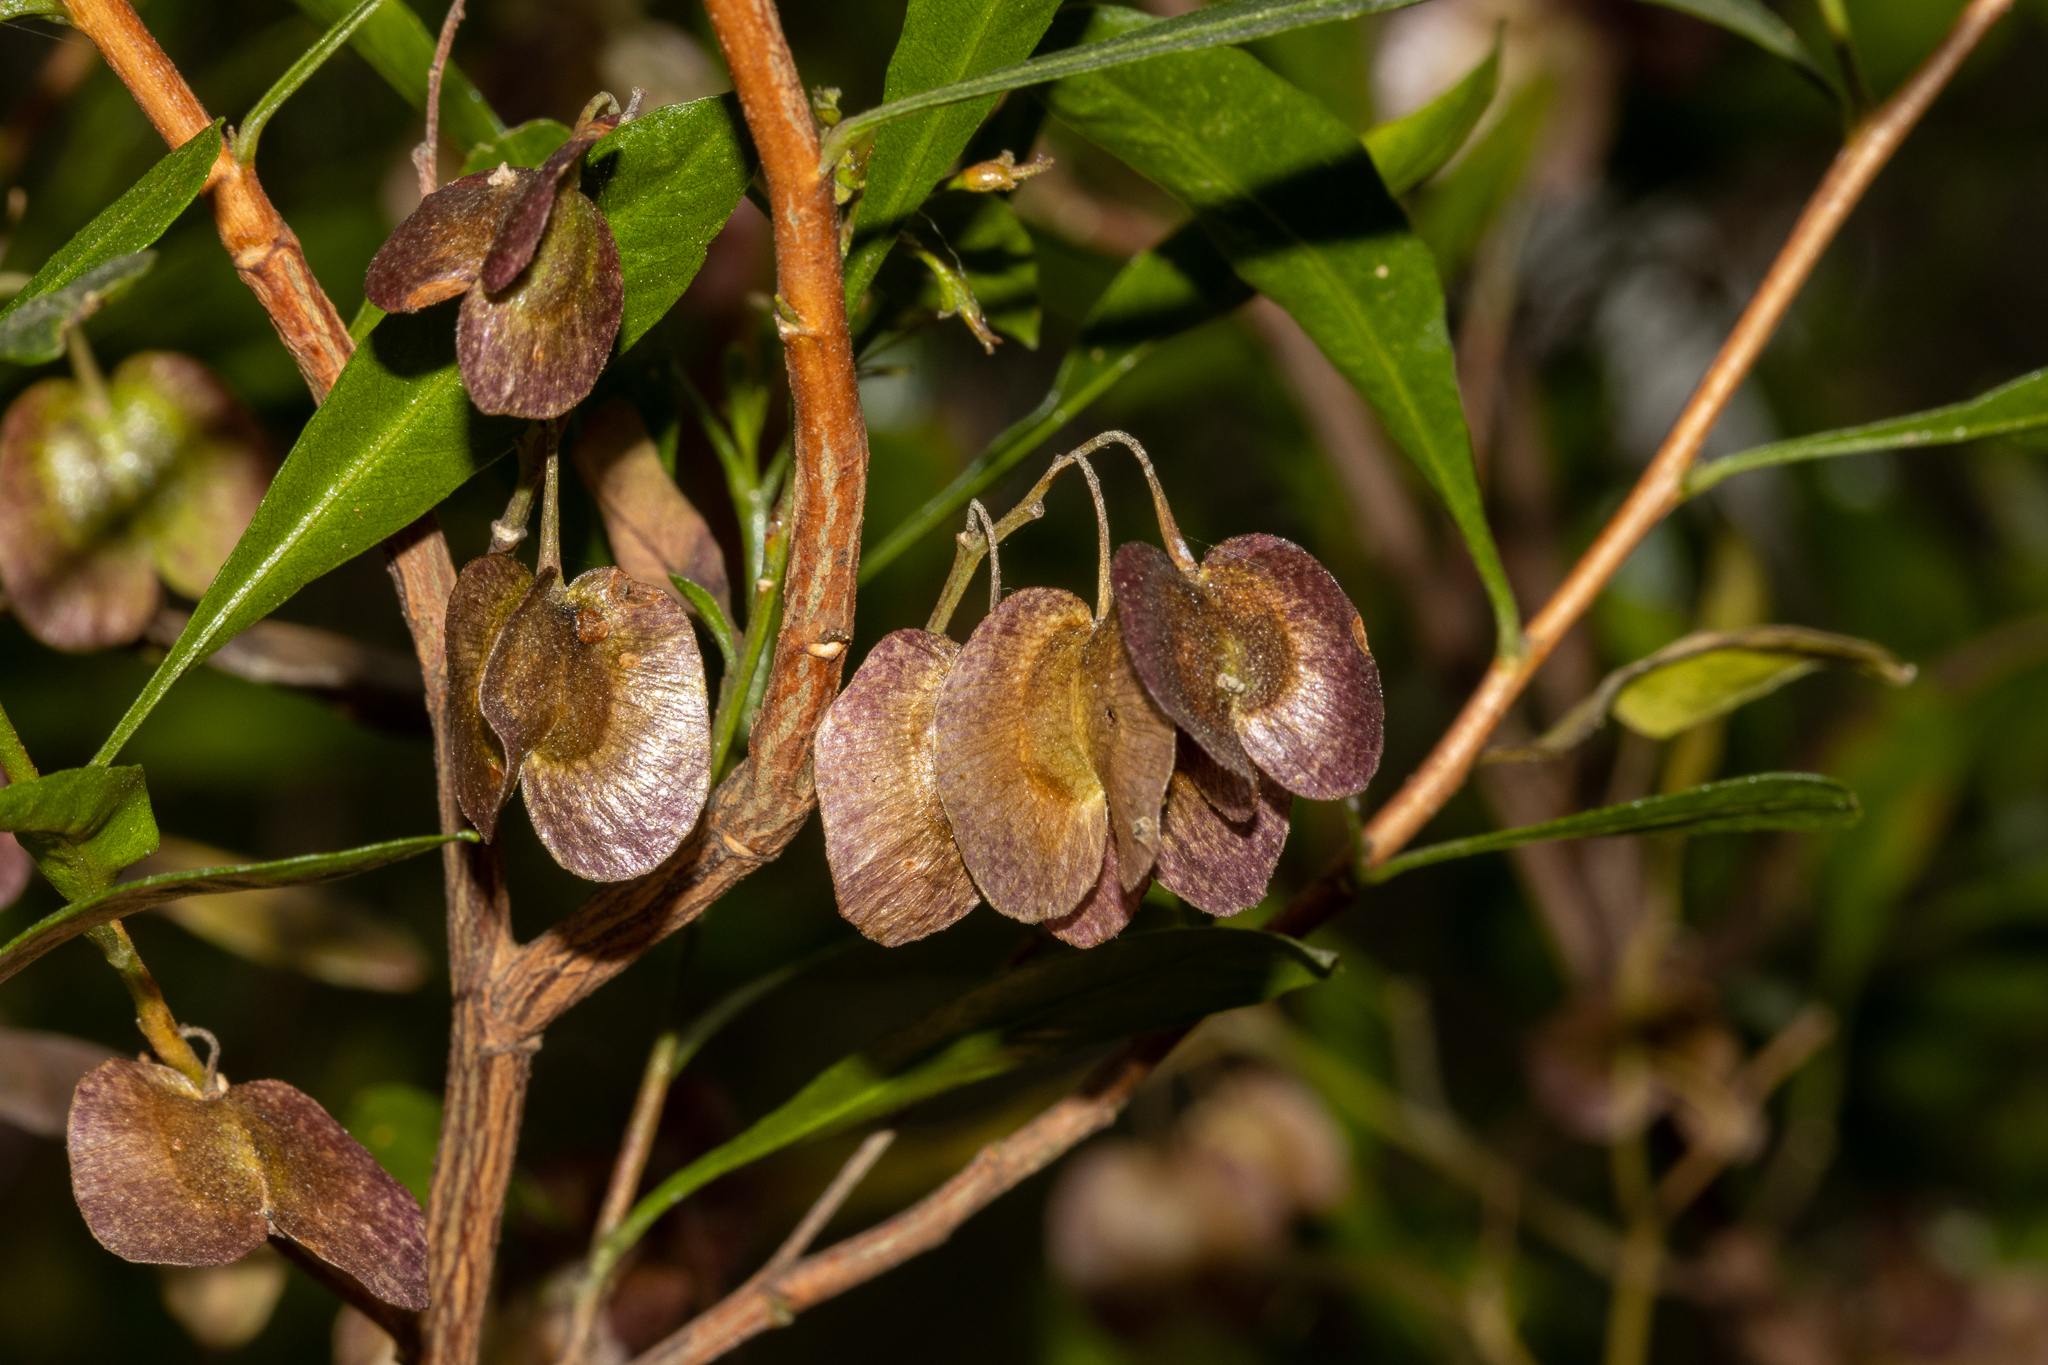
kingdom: Plantae
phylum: Tracheophyta
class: Magnoliopsida
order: Sapindales
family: Sapindaceae
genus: Dodonaea
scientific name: Dodonaea viscosa
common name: Hopbush
